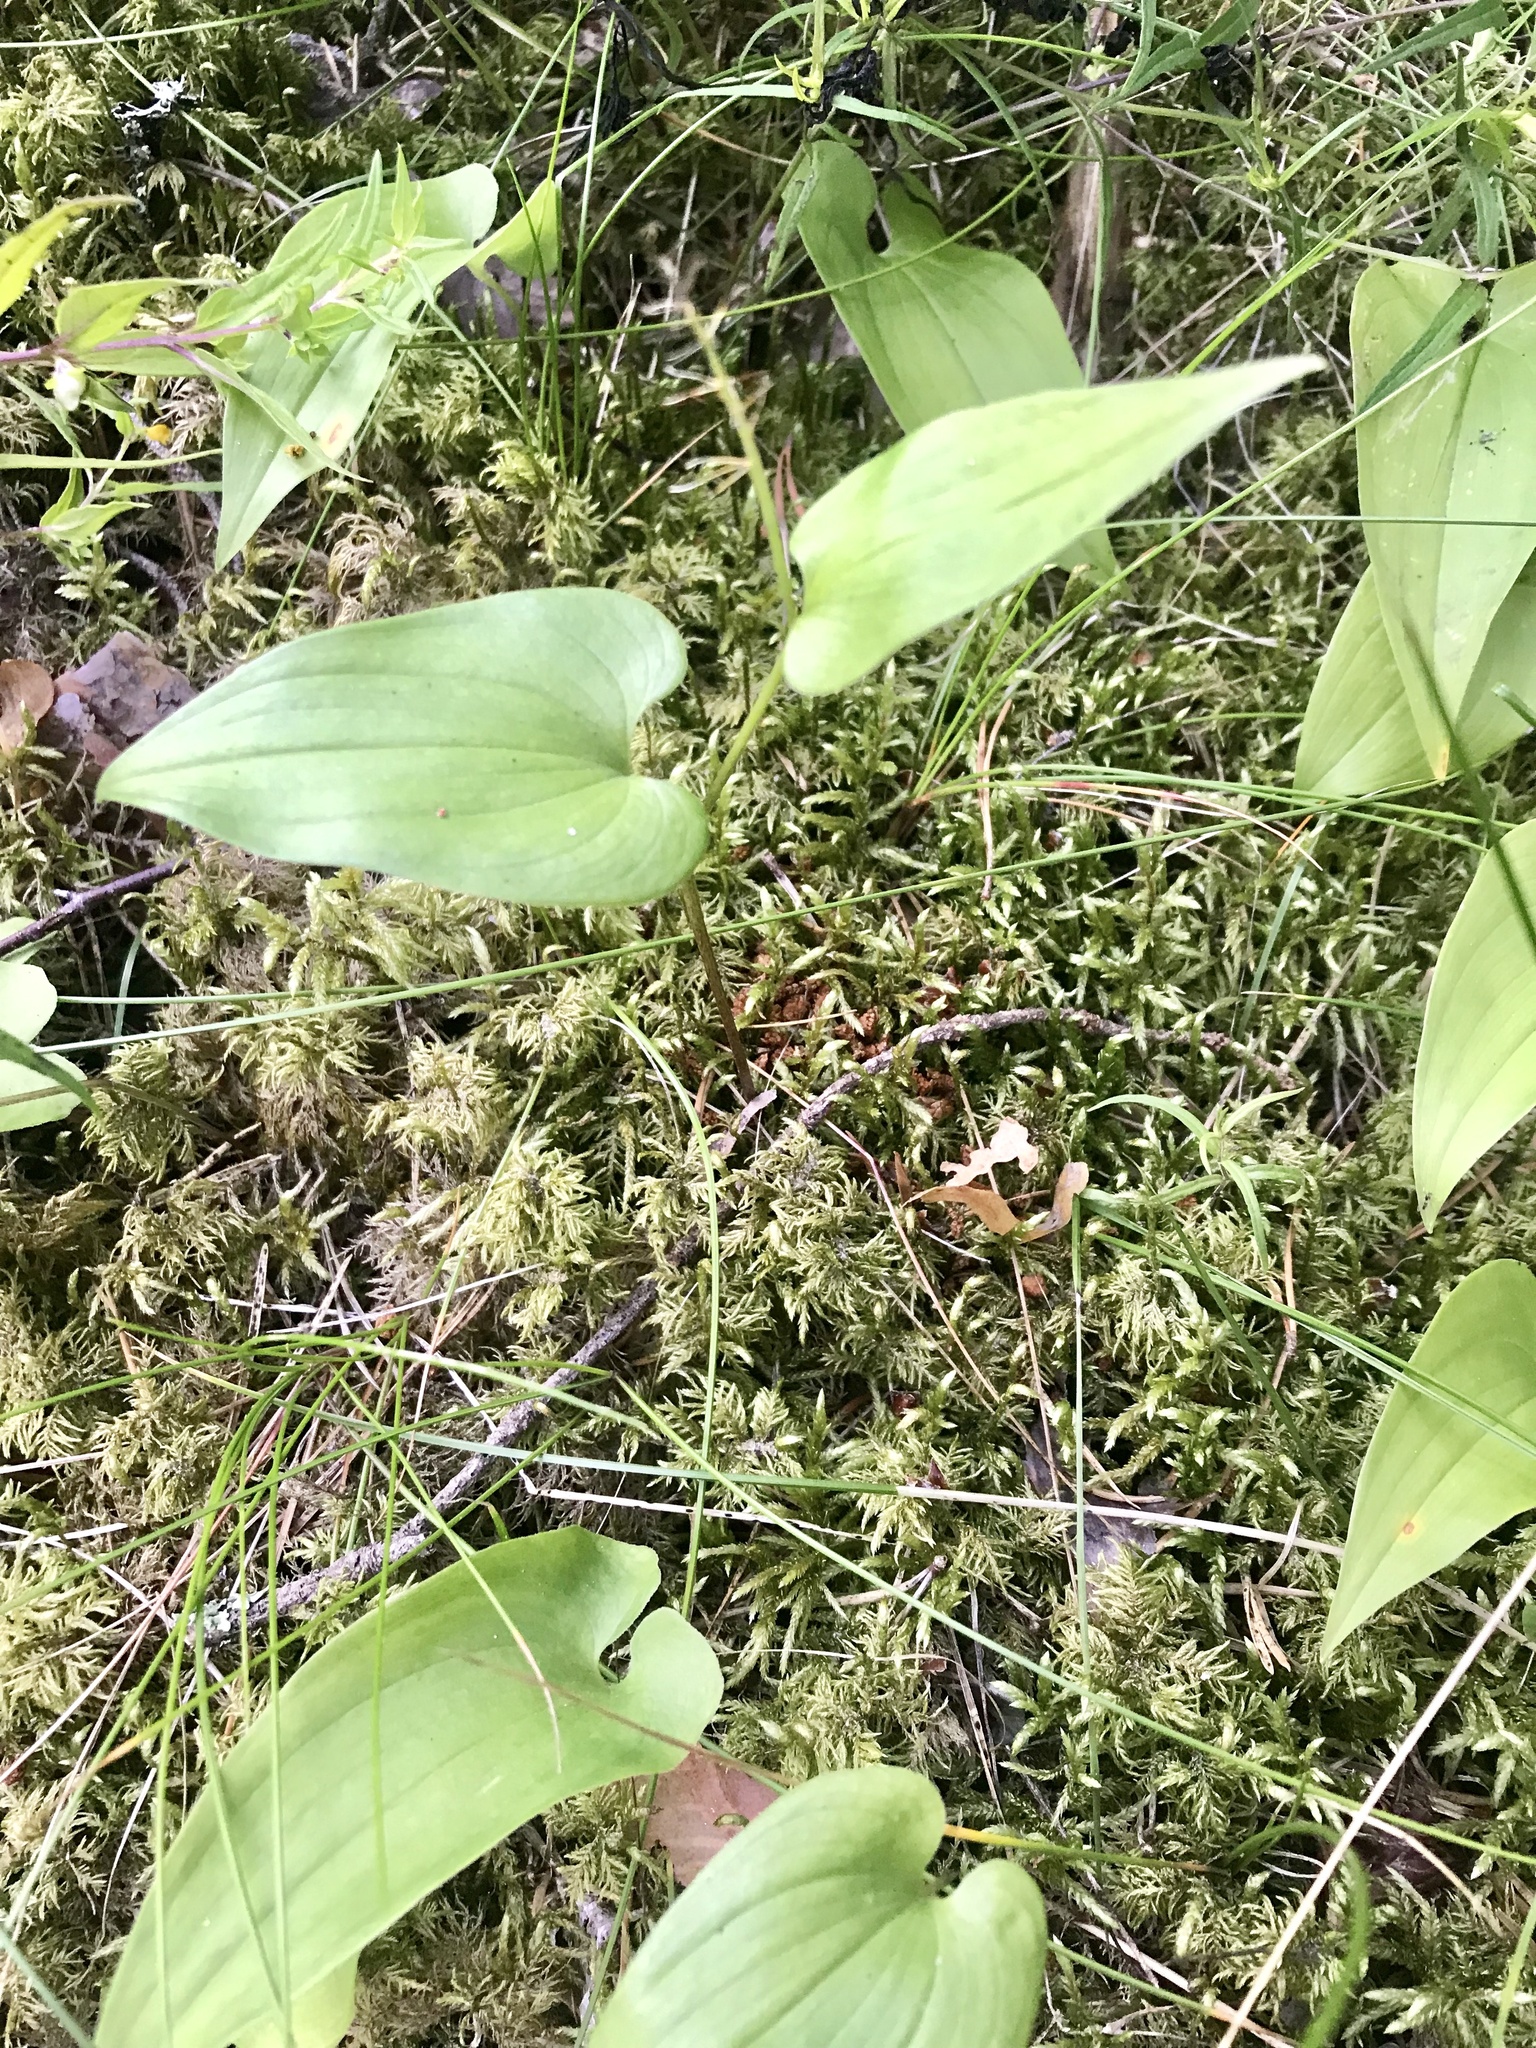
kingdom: Plantae
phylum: Tracheophyta
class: Liliopsida
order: Asparagales
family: Asparagaceae
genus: Maianthemum
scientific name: Maianthemum bifolium
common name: May lily
